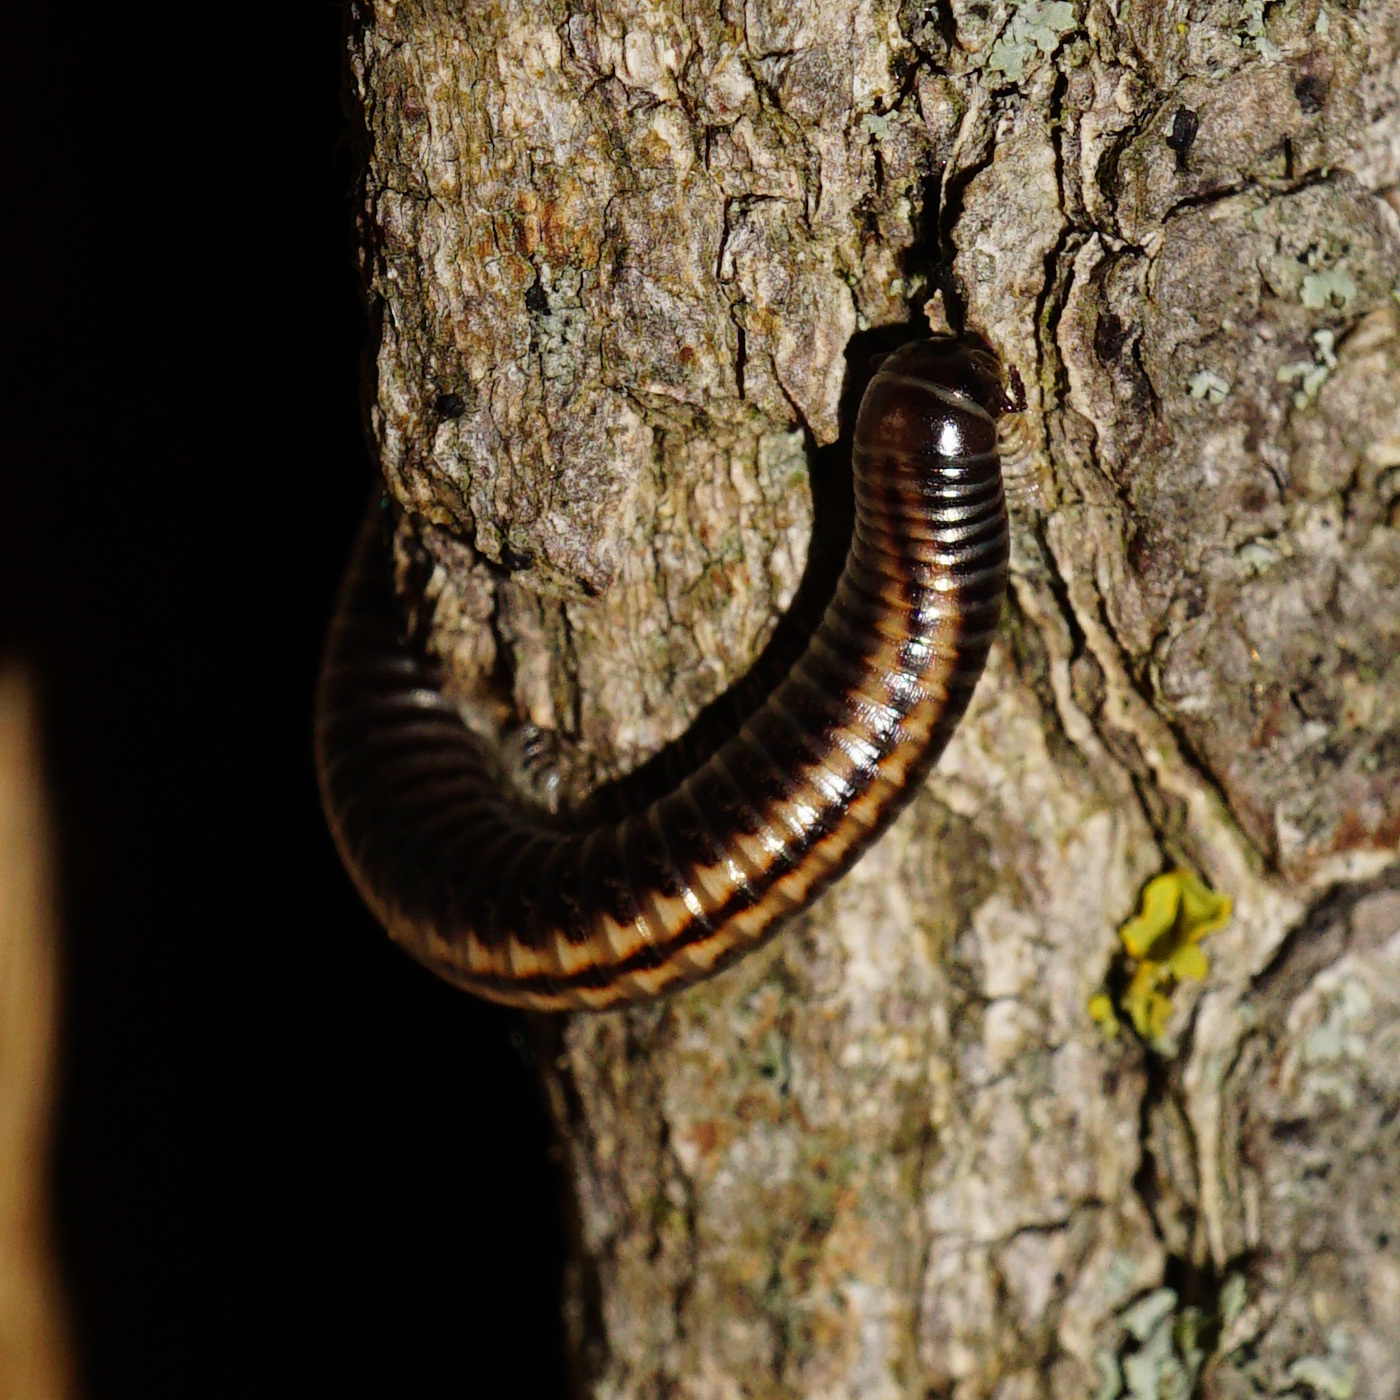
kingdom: Animalia
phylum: Arthropoda
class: Diplopoda
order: Julida
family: Julidae
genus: Ommatoiulus
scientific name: Ommatoiulus sabulosus
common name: Striped millipede
